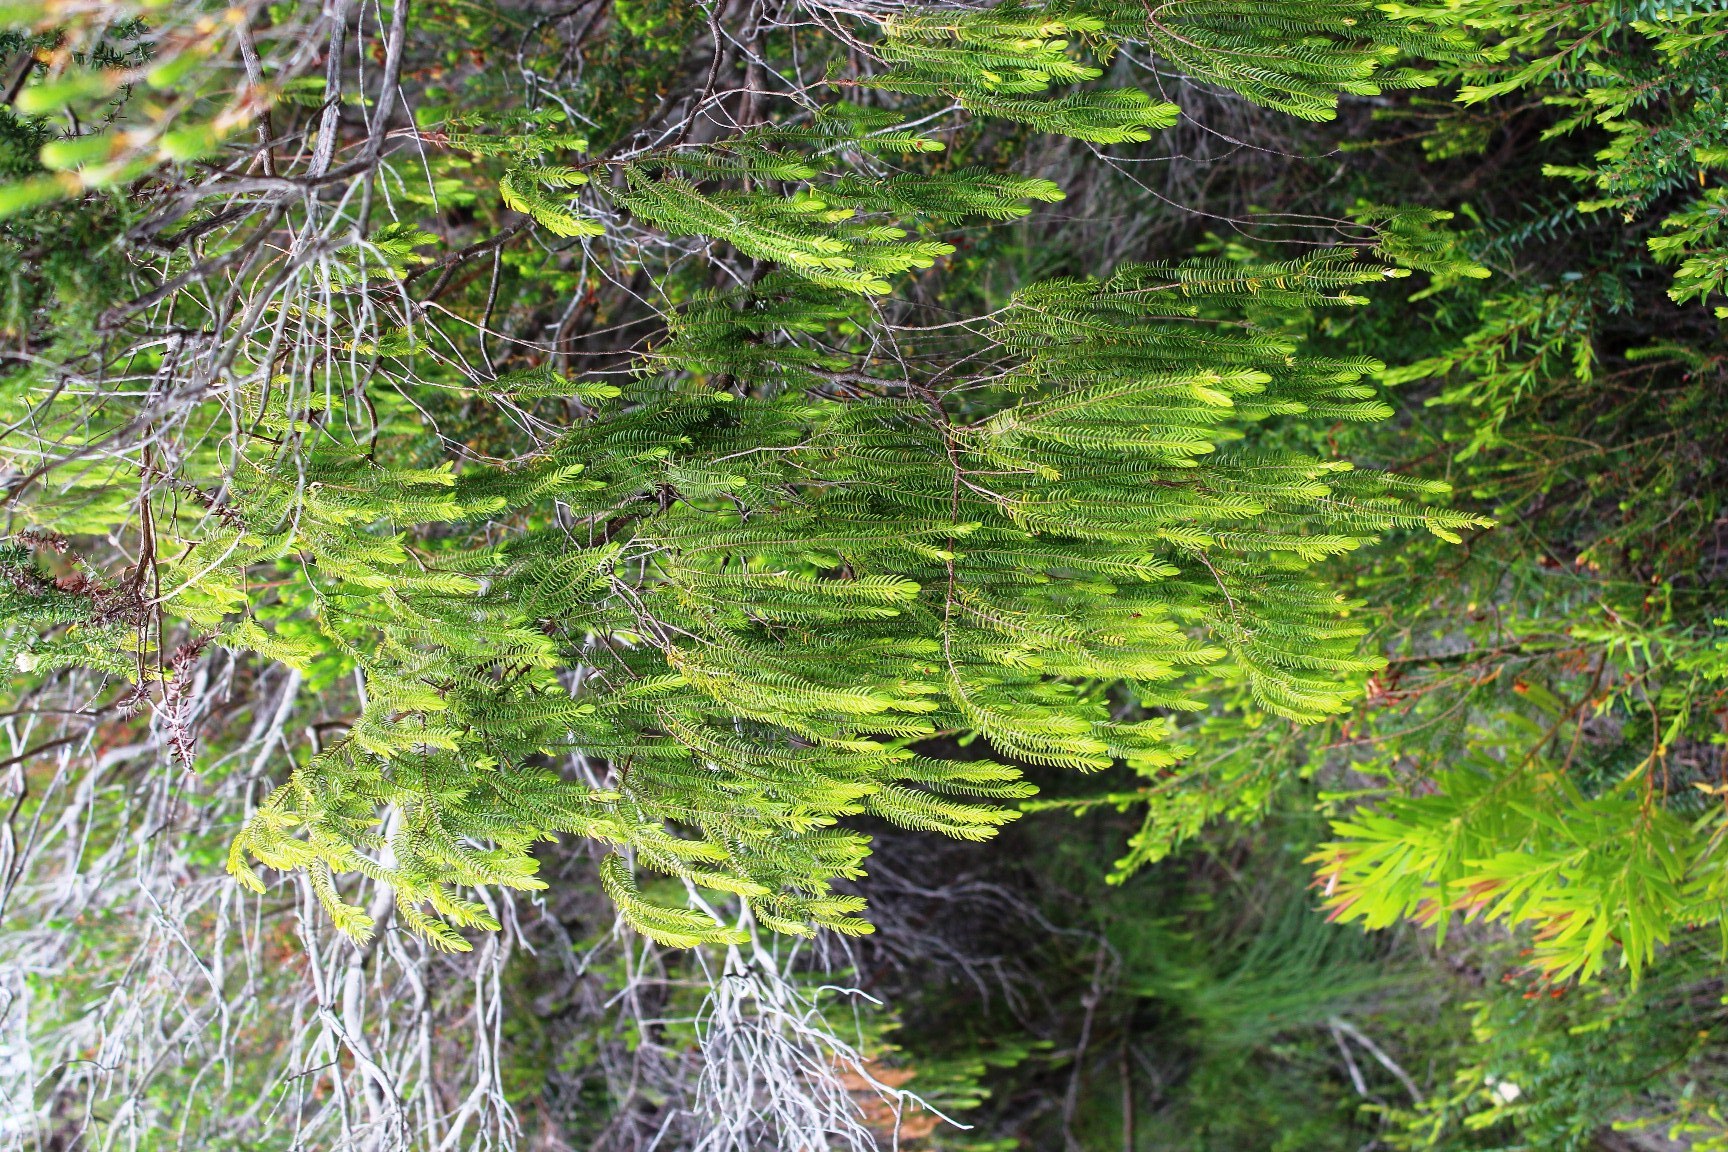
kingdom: Plantae
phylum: Tracheophyta
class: Magnoliopsida
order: Malvales
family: Thymelaeaceae
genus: Passerina
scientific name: Passerina rigida
